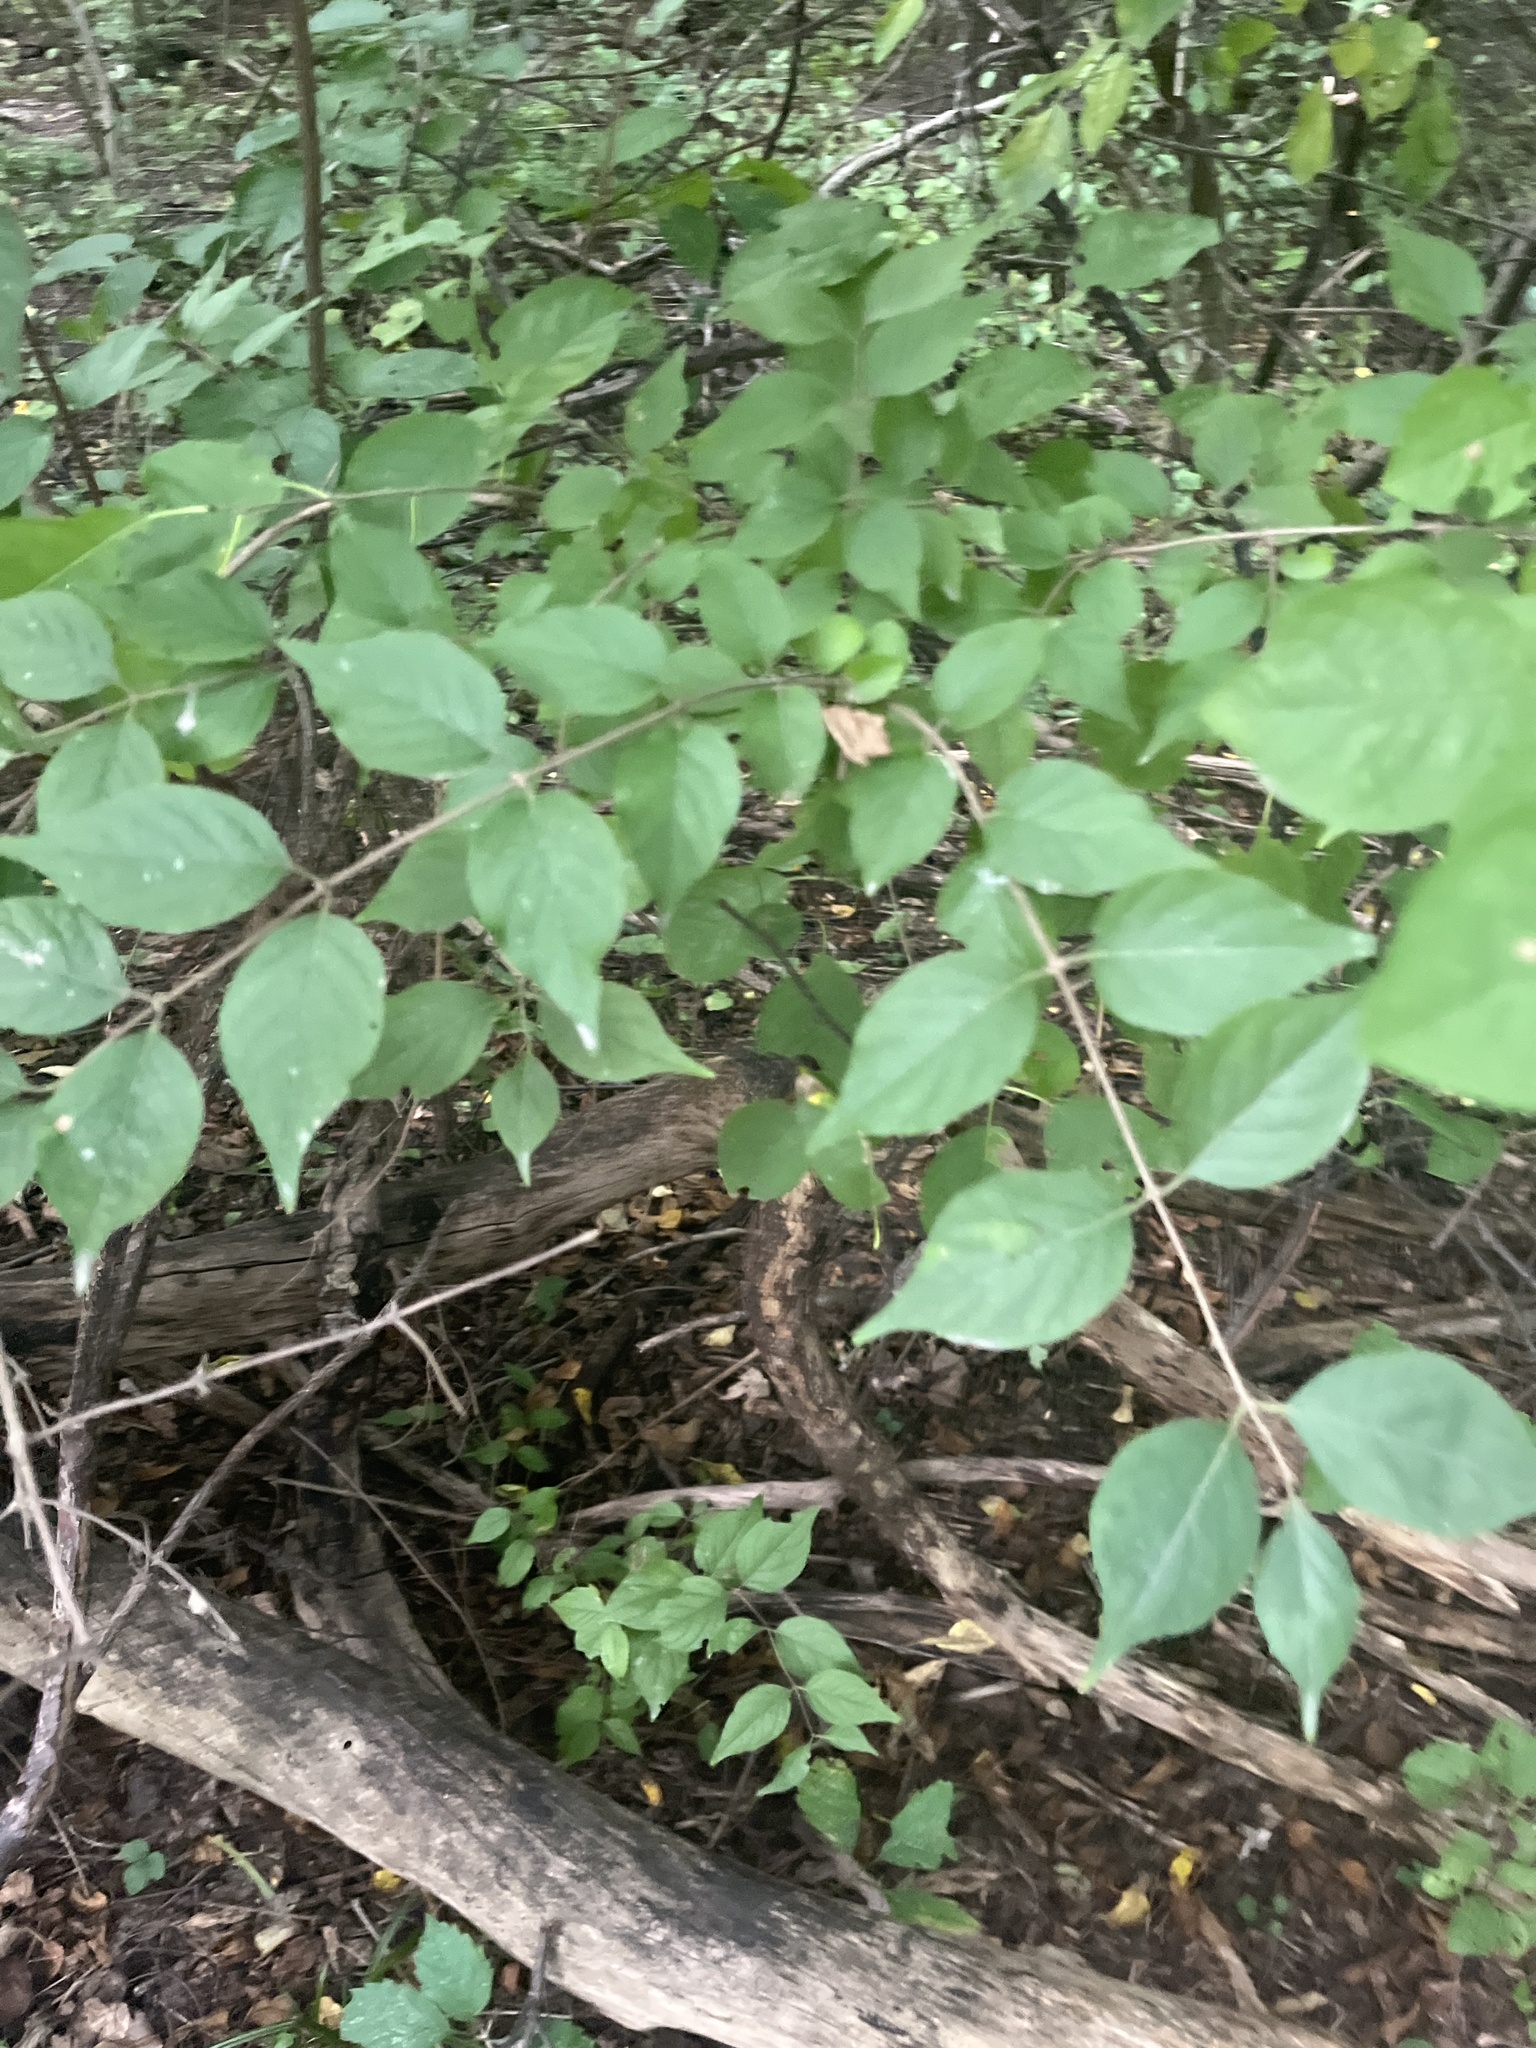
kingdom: Plantae
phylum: Tracheophyta
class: Magnoliopsida
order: Dipsacales
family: Caprifoliaceae
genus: Lonicera
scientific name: Lonicera maackii
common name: Amur honeysuckle
